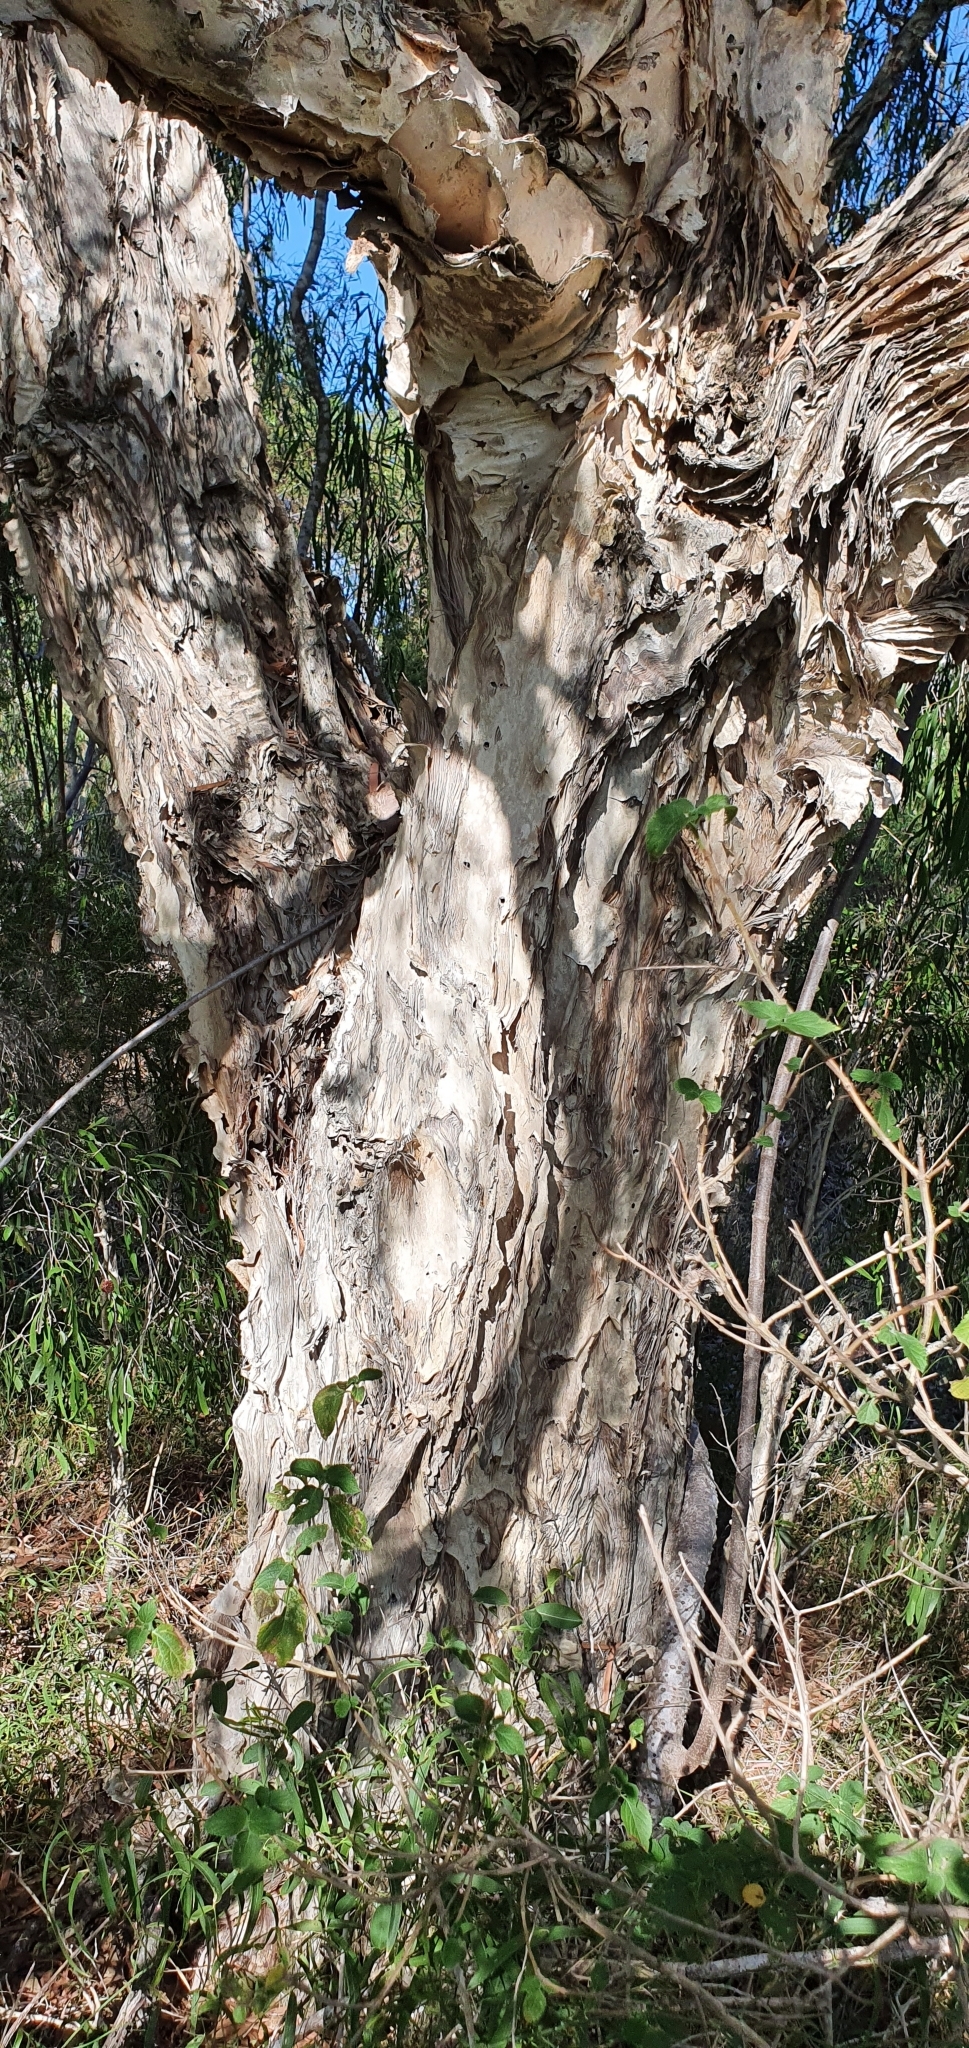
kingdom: Plantae
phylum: Tracheophyta
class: Magnoliopsida
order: Myrtales
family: Myrtaceae
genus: Melaleuca
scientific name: Melaleuca fluviatilis
